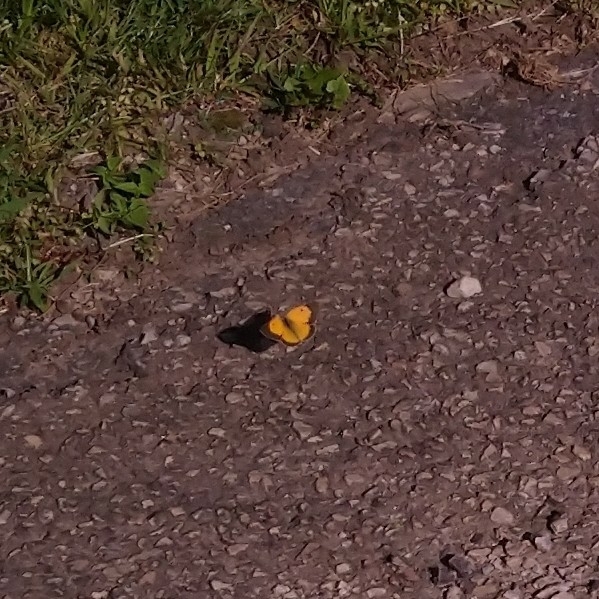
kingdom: Animalia
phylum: Arthropoda
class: Insecta
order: Lepidoptera
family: Pieridae
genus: Colias
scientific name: Colias electo
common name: African clouded yellow
